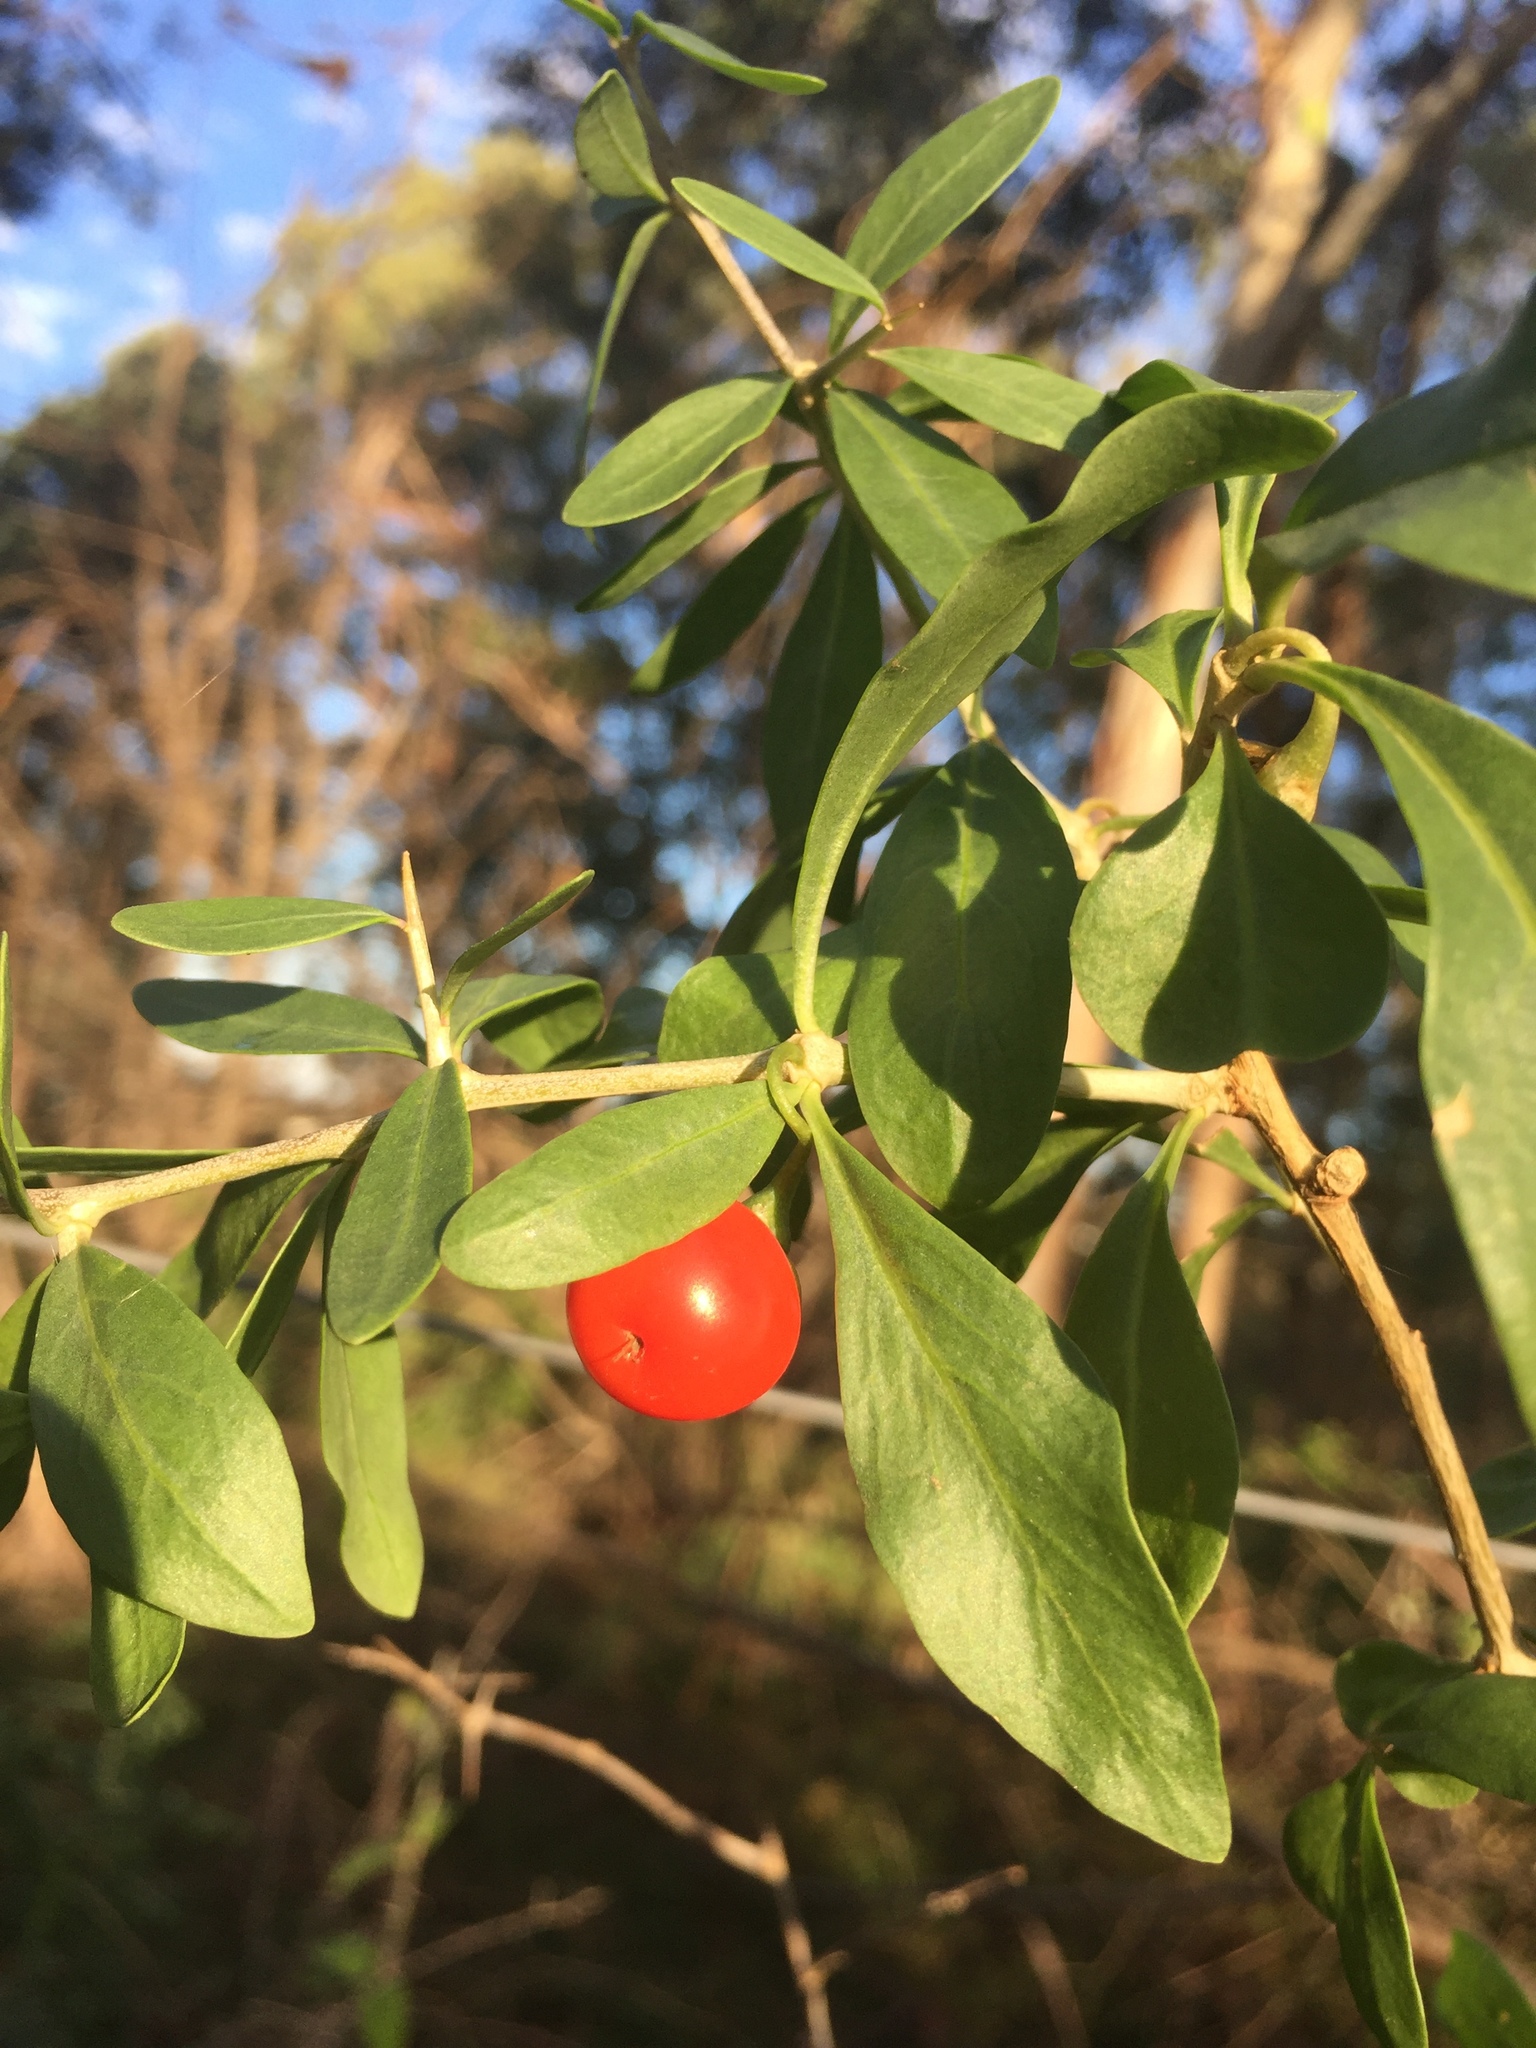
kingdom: Plantae
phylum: Tracheophyta
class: Magnoliopsida
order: Solanales
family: Solanaceae
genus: Lycium
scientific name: Lycium ferocissimum
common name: African boxthorn
